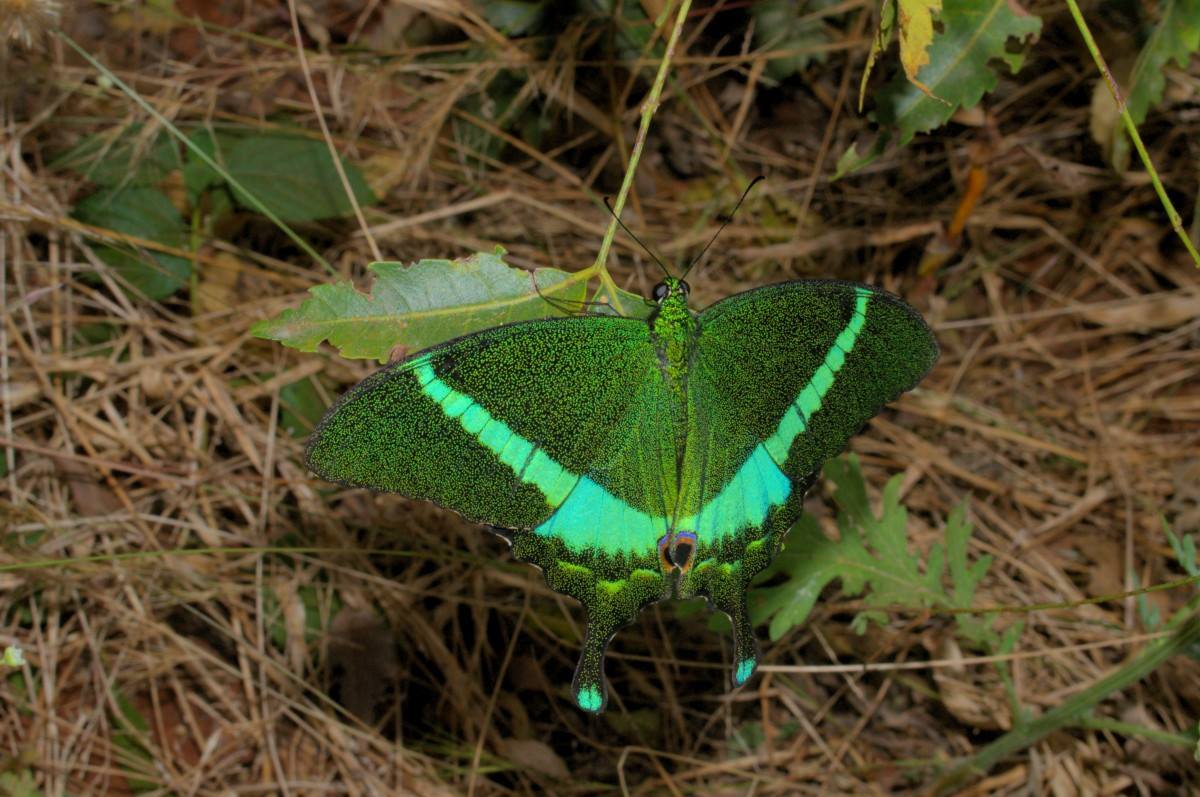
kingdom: Animalia
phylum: Arthropoda
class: Insecta
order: Lepidoptera
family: Papilionidae
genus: Papilio
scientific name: Papilio crino
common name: Common banded peacock
